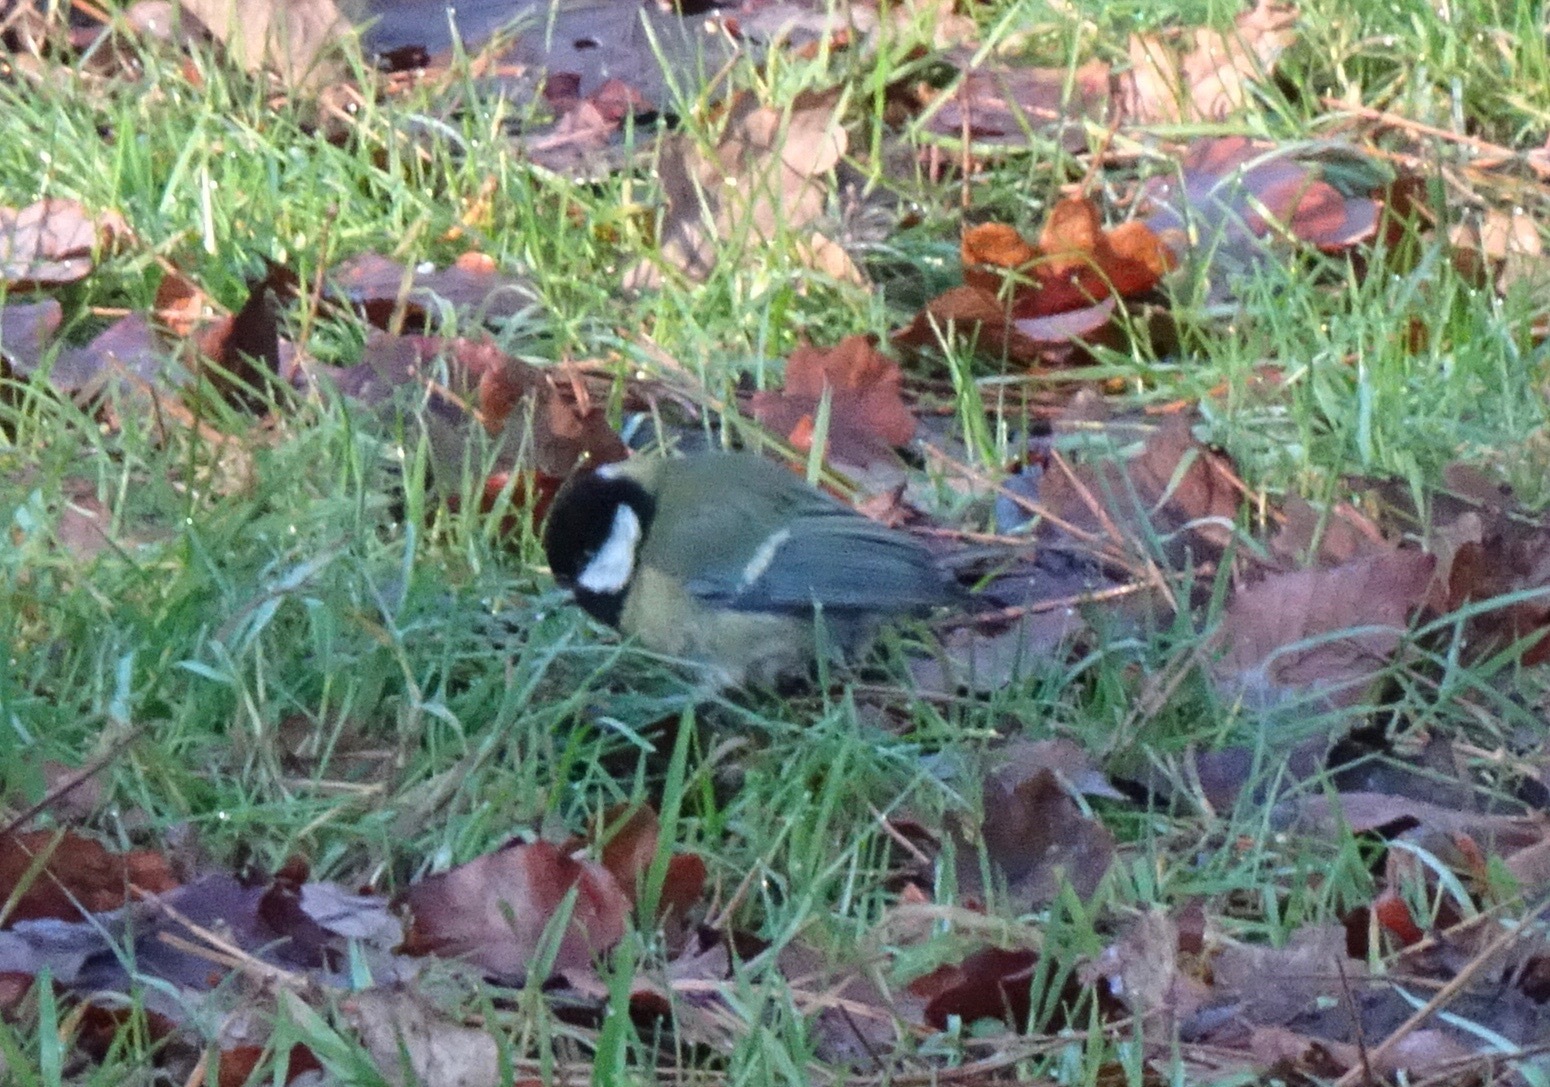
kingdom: Animalia
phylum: Chordata
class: Aves
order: Passeriformes
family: Paridae
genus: Parus
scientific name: Parus major
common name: Great tit
